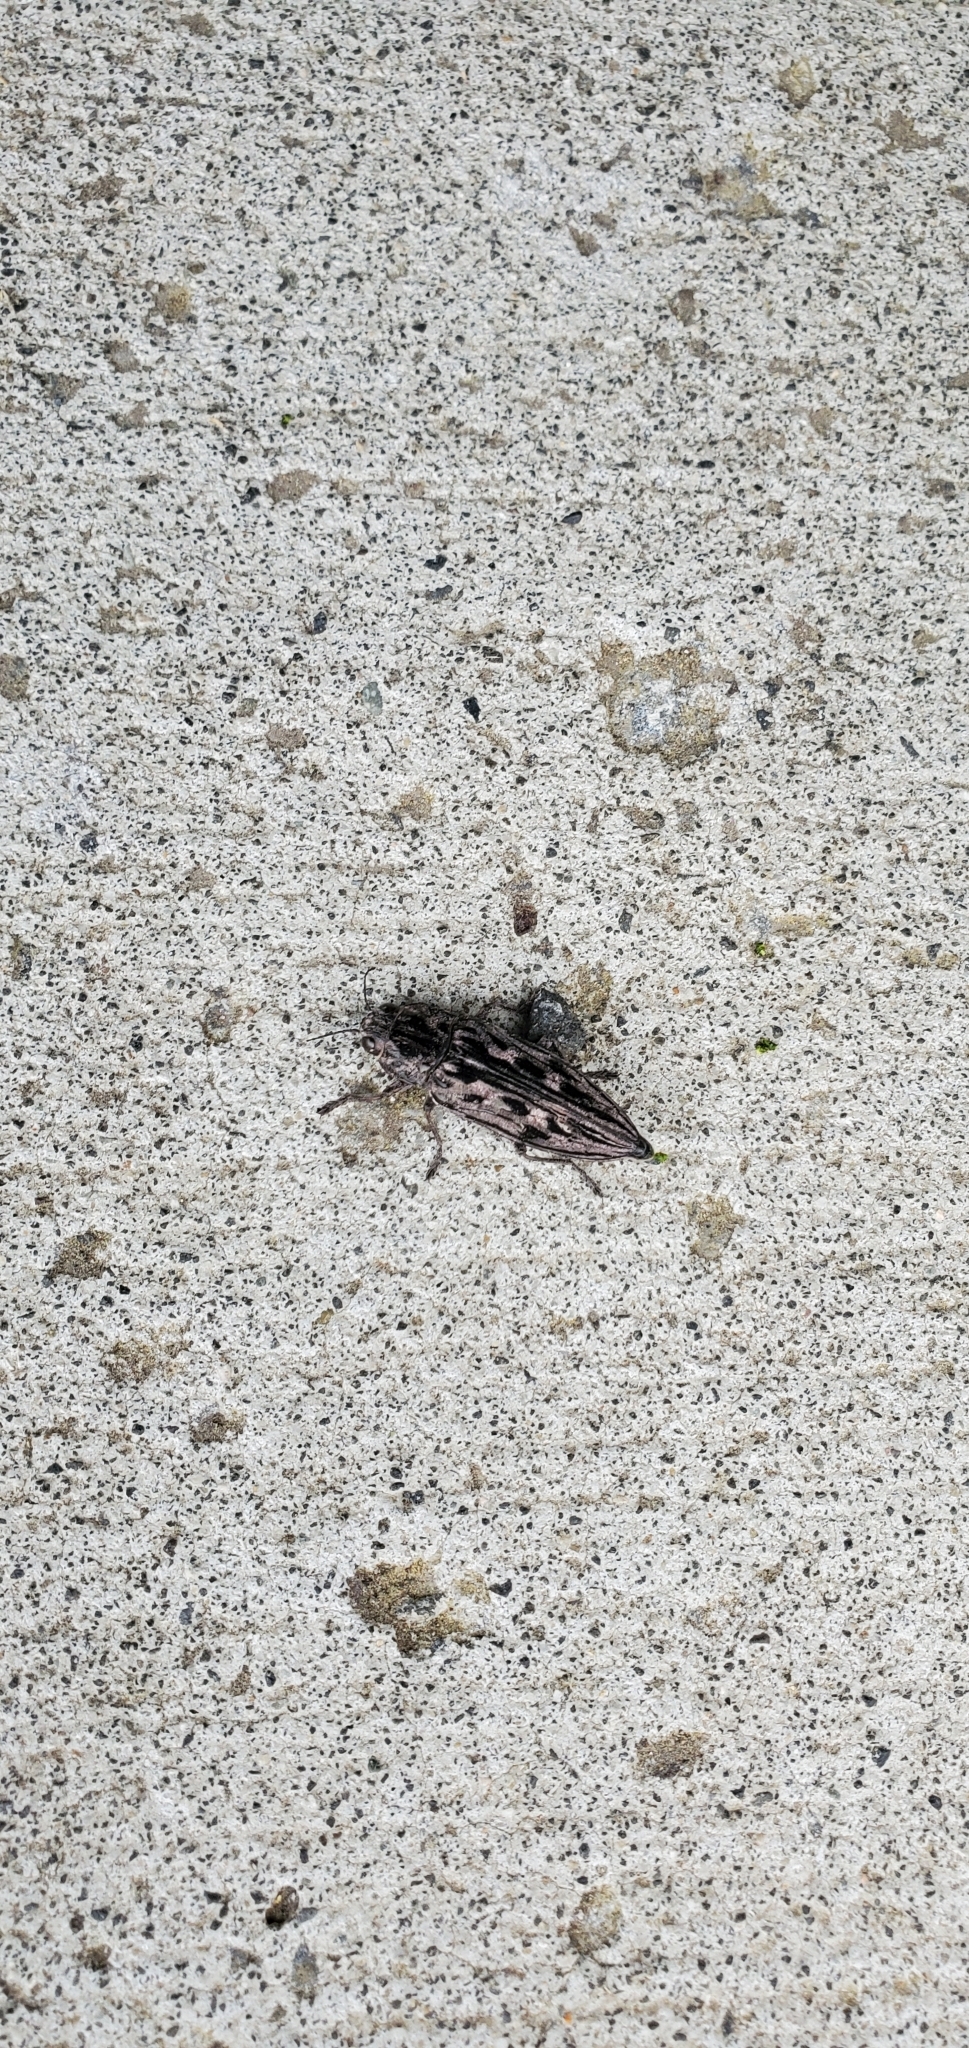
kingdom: Animalia
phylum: Arthropoda
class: Insecta
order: Coleoptera
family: Buprestidae
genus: Chalcophora
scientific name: Chalcophora angulicollis
